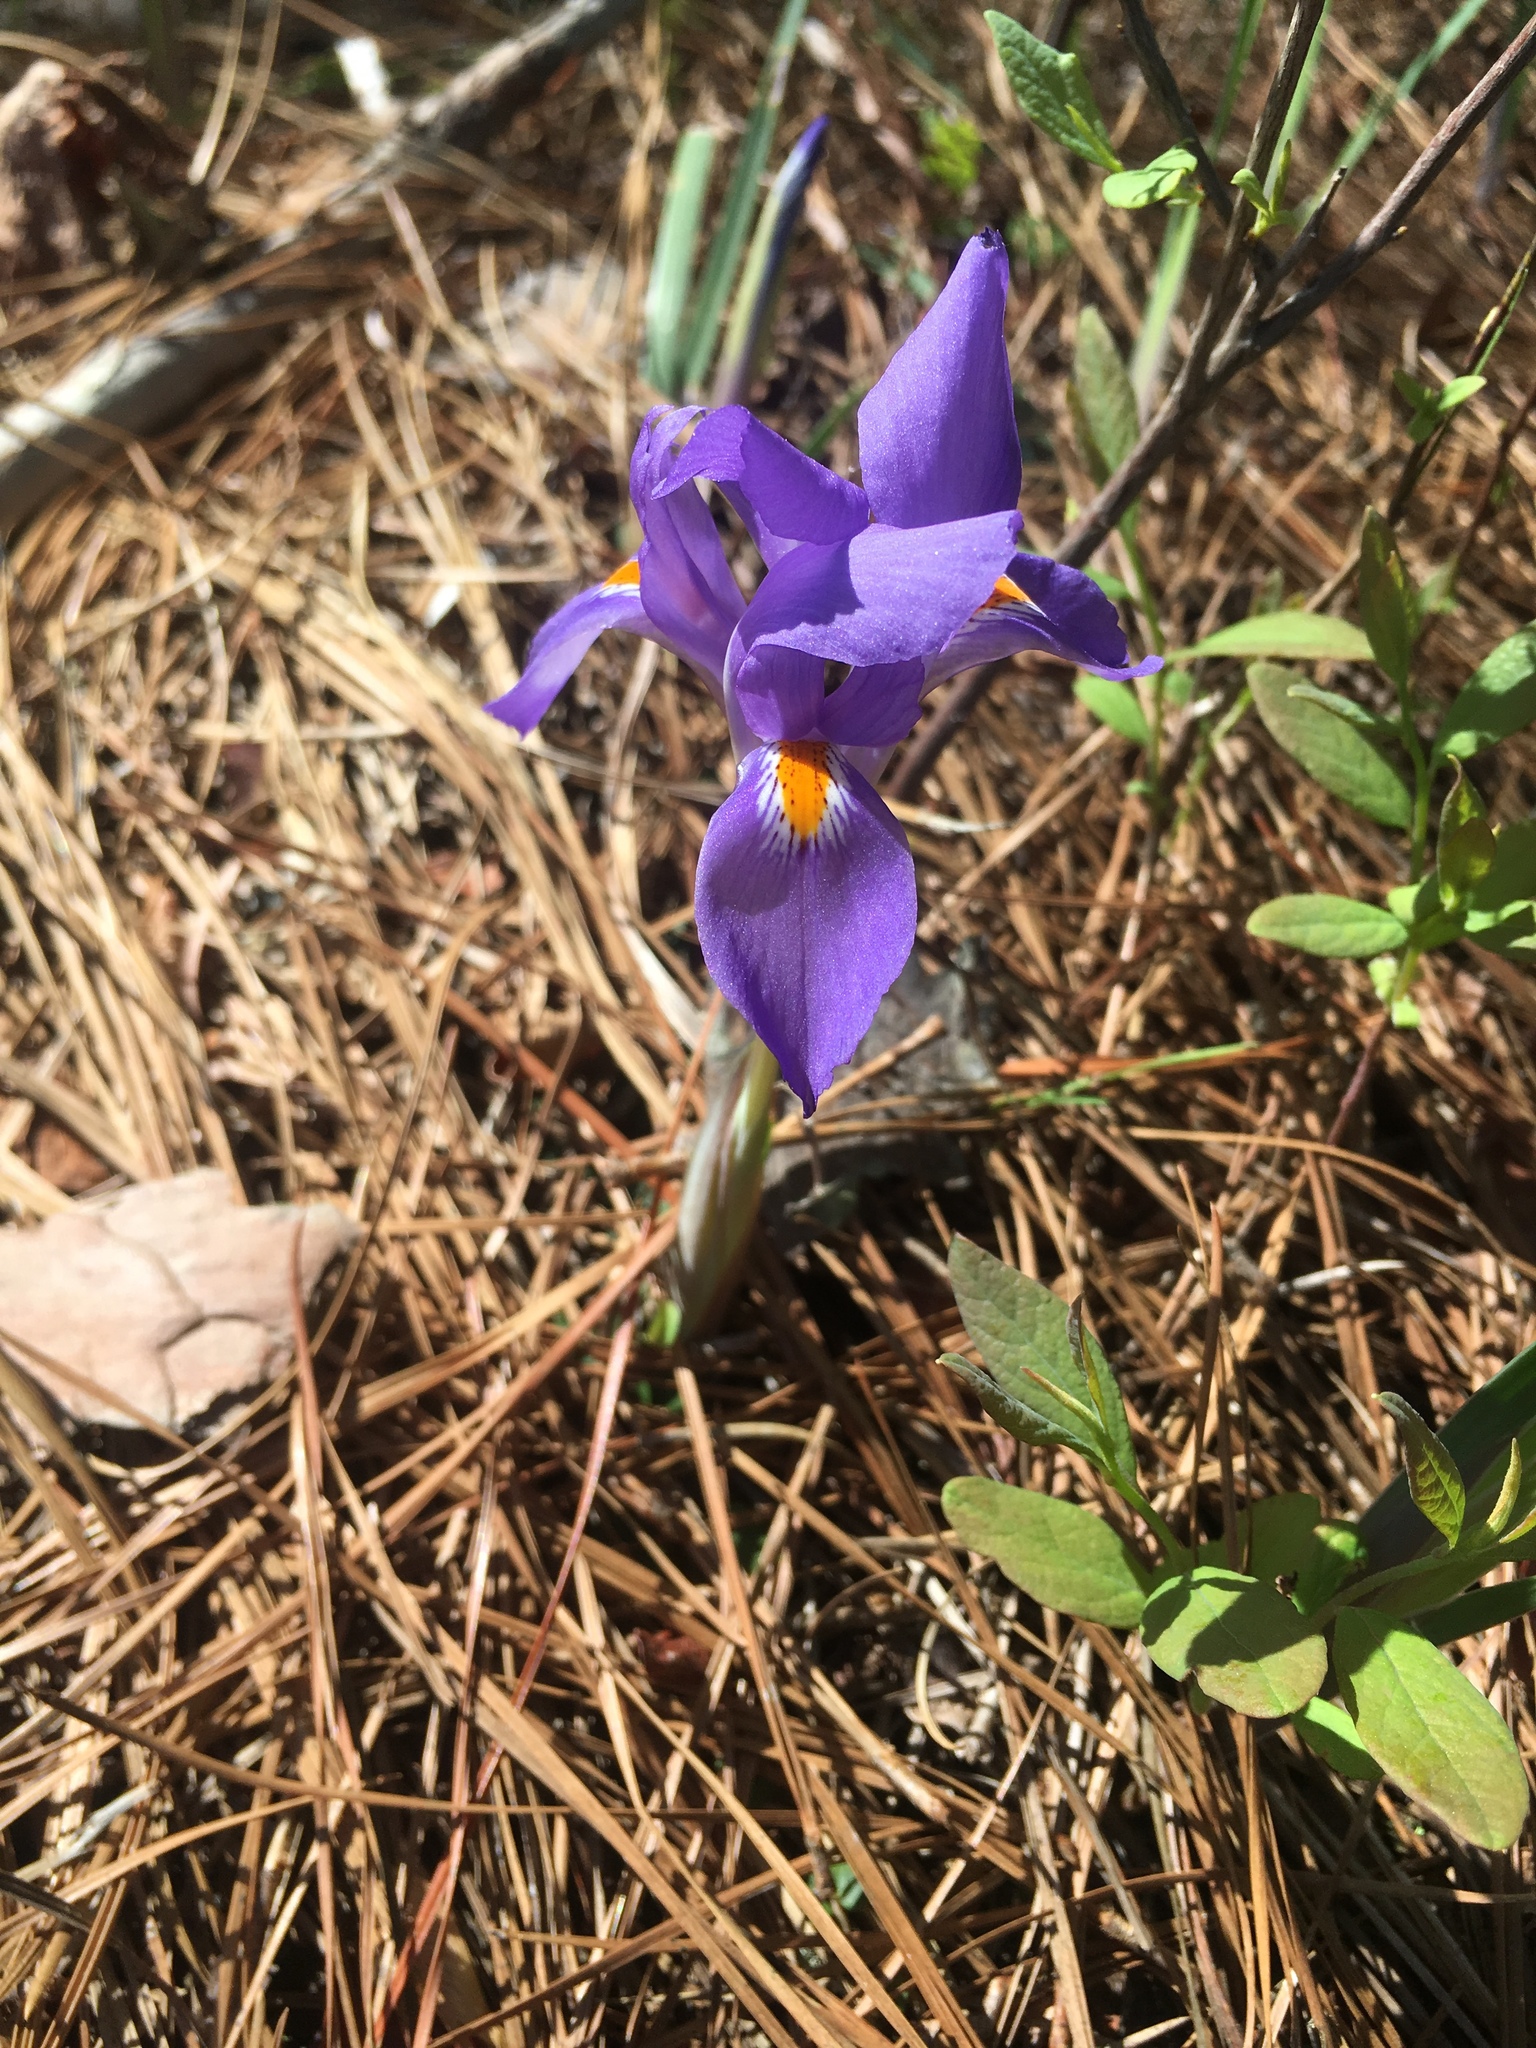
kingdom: Plantae
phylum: Tracheophyta
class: Liliopsida
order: Asparagales
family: Iridaceae
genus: Iris
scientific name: Iris verna
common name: Dwarf iris
